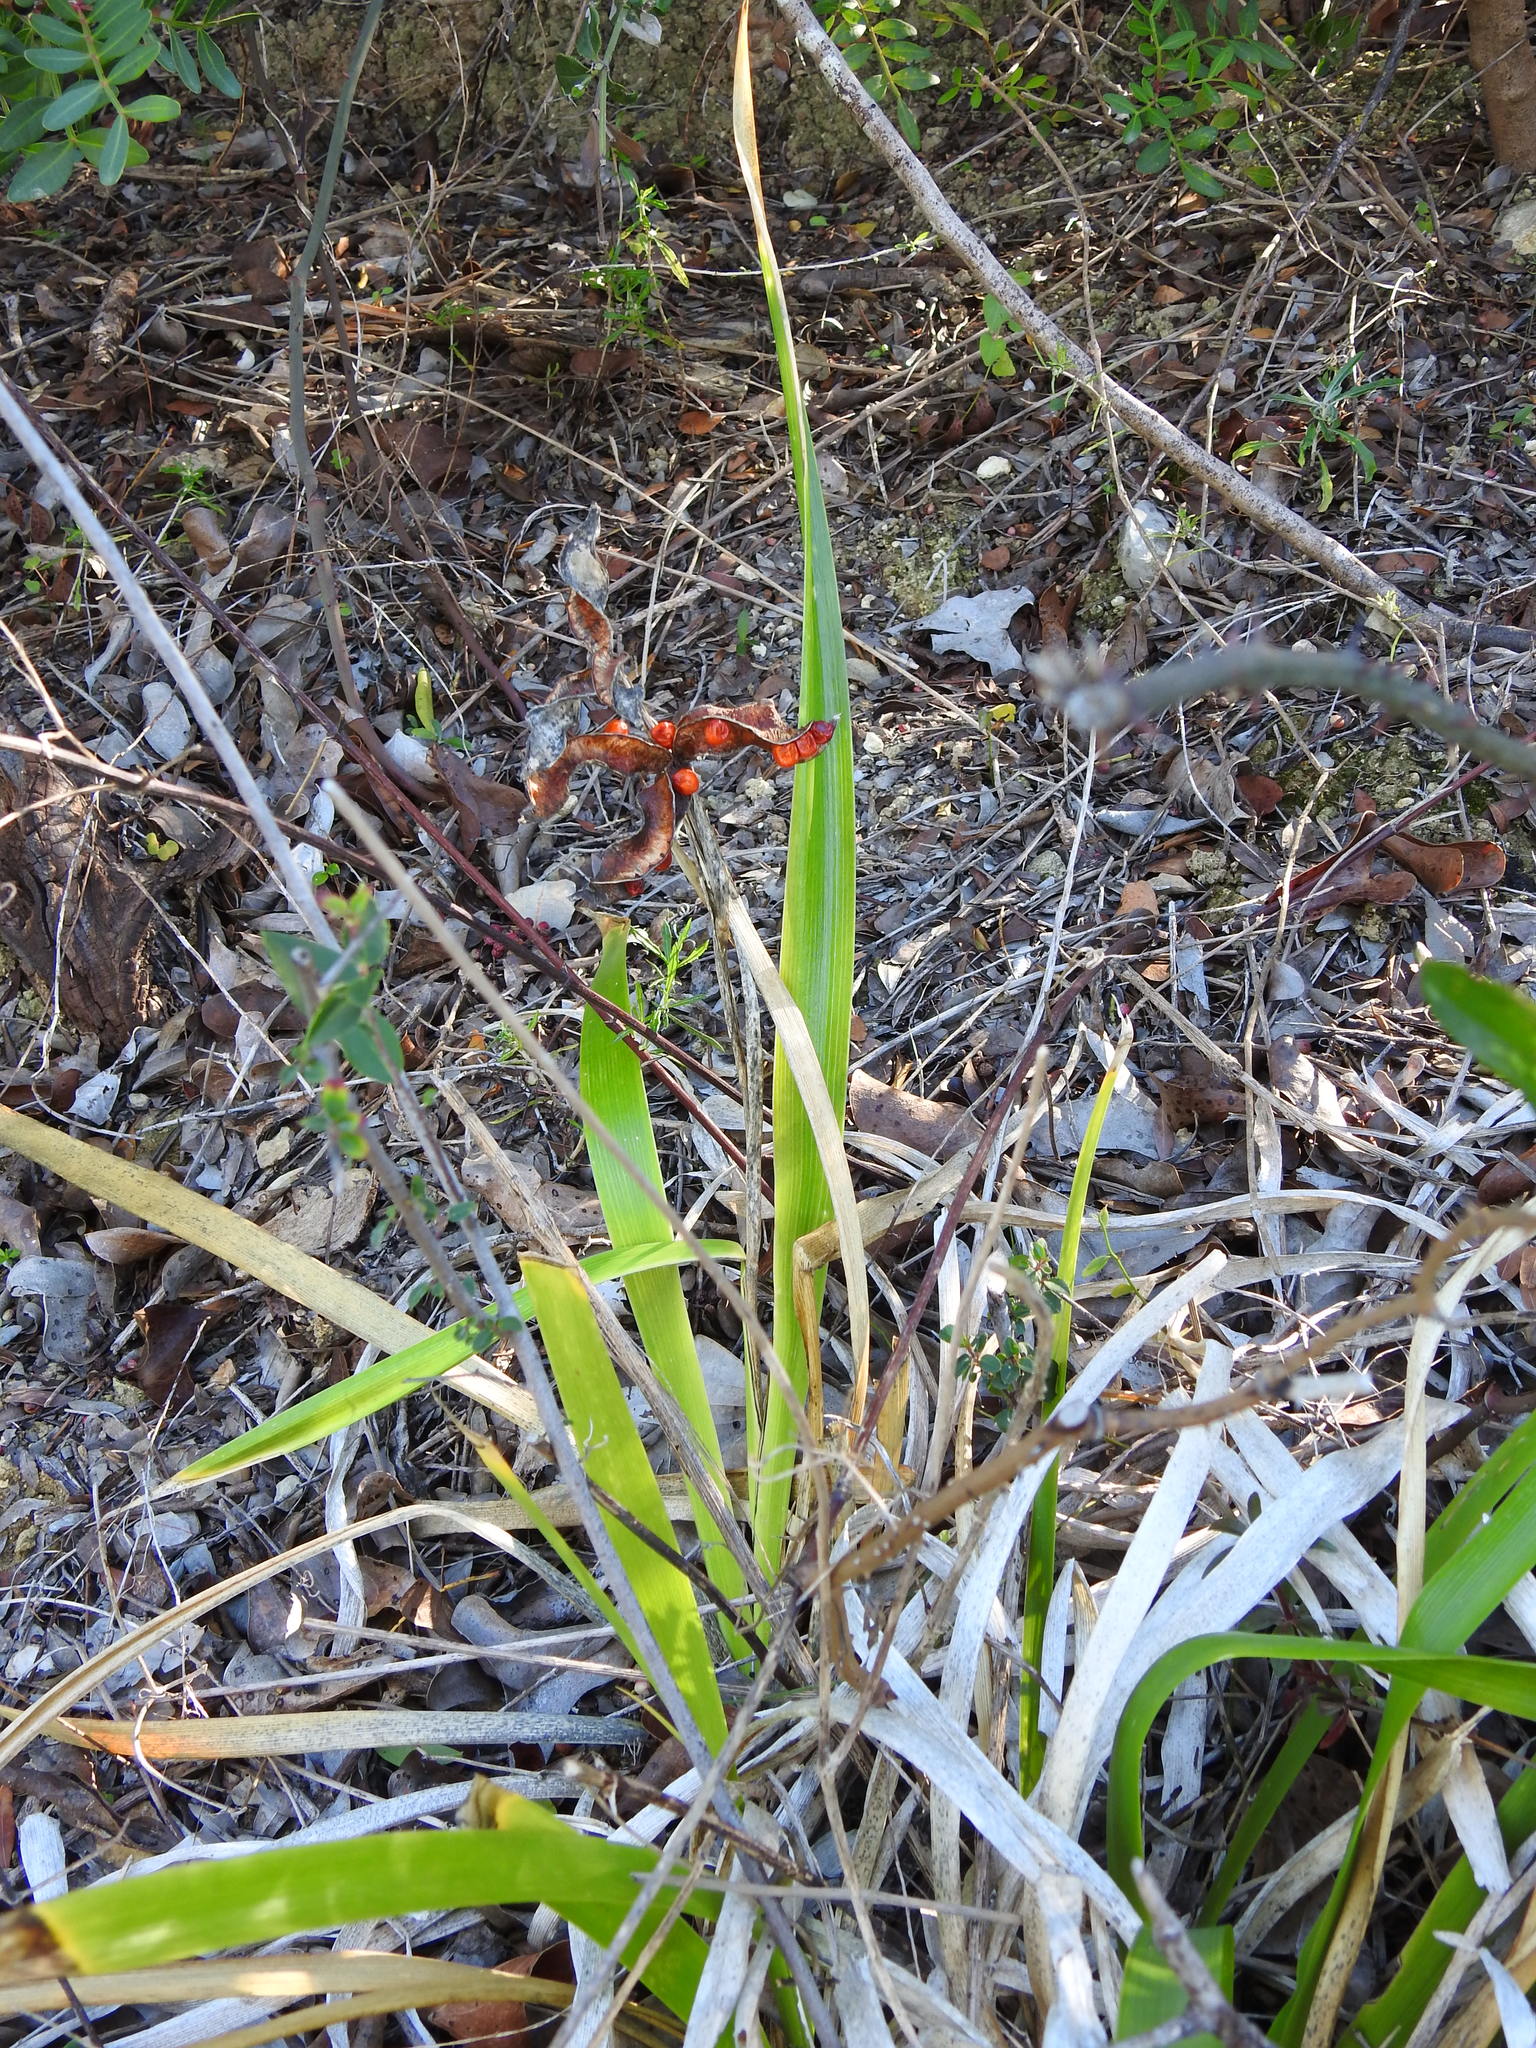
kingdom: Plantae
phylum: Tracheophyta
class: Liliopsida
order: Asparagales
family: Iridaceae
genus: Iris
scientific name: Iris foetidissima
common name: Stinking iris
